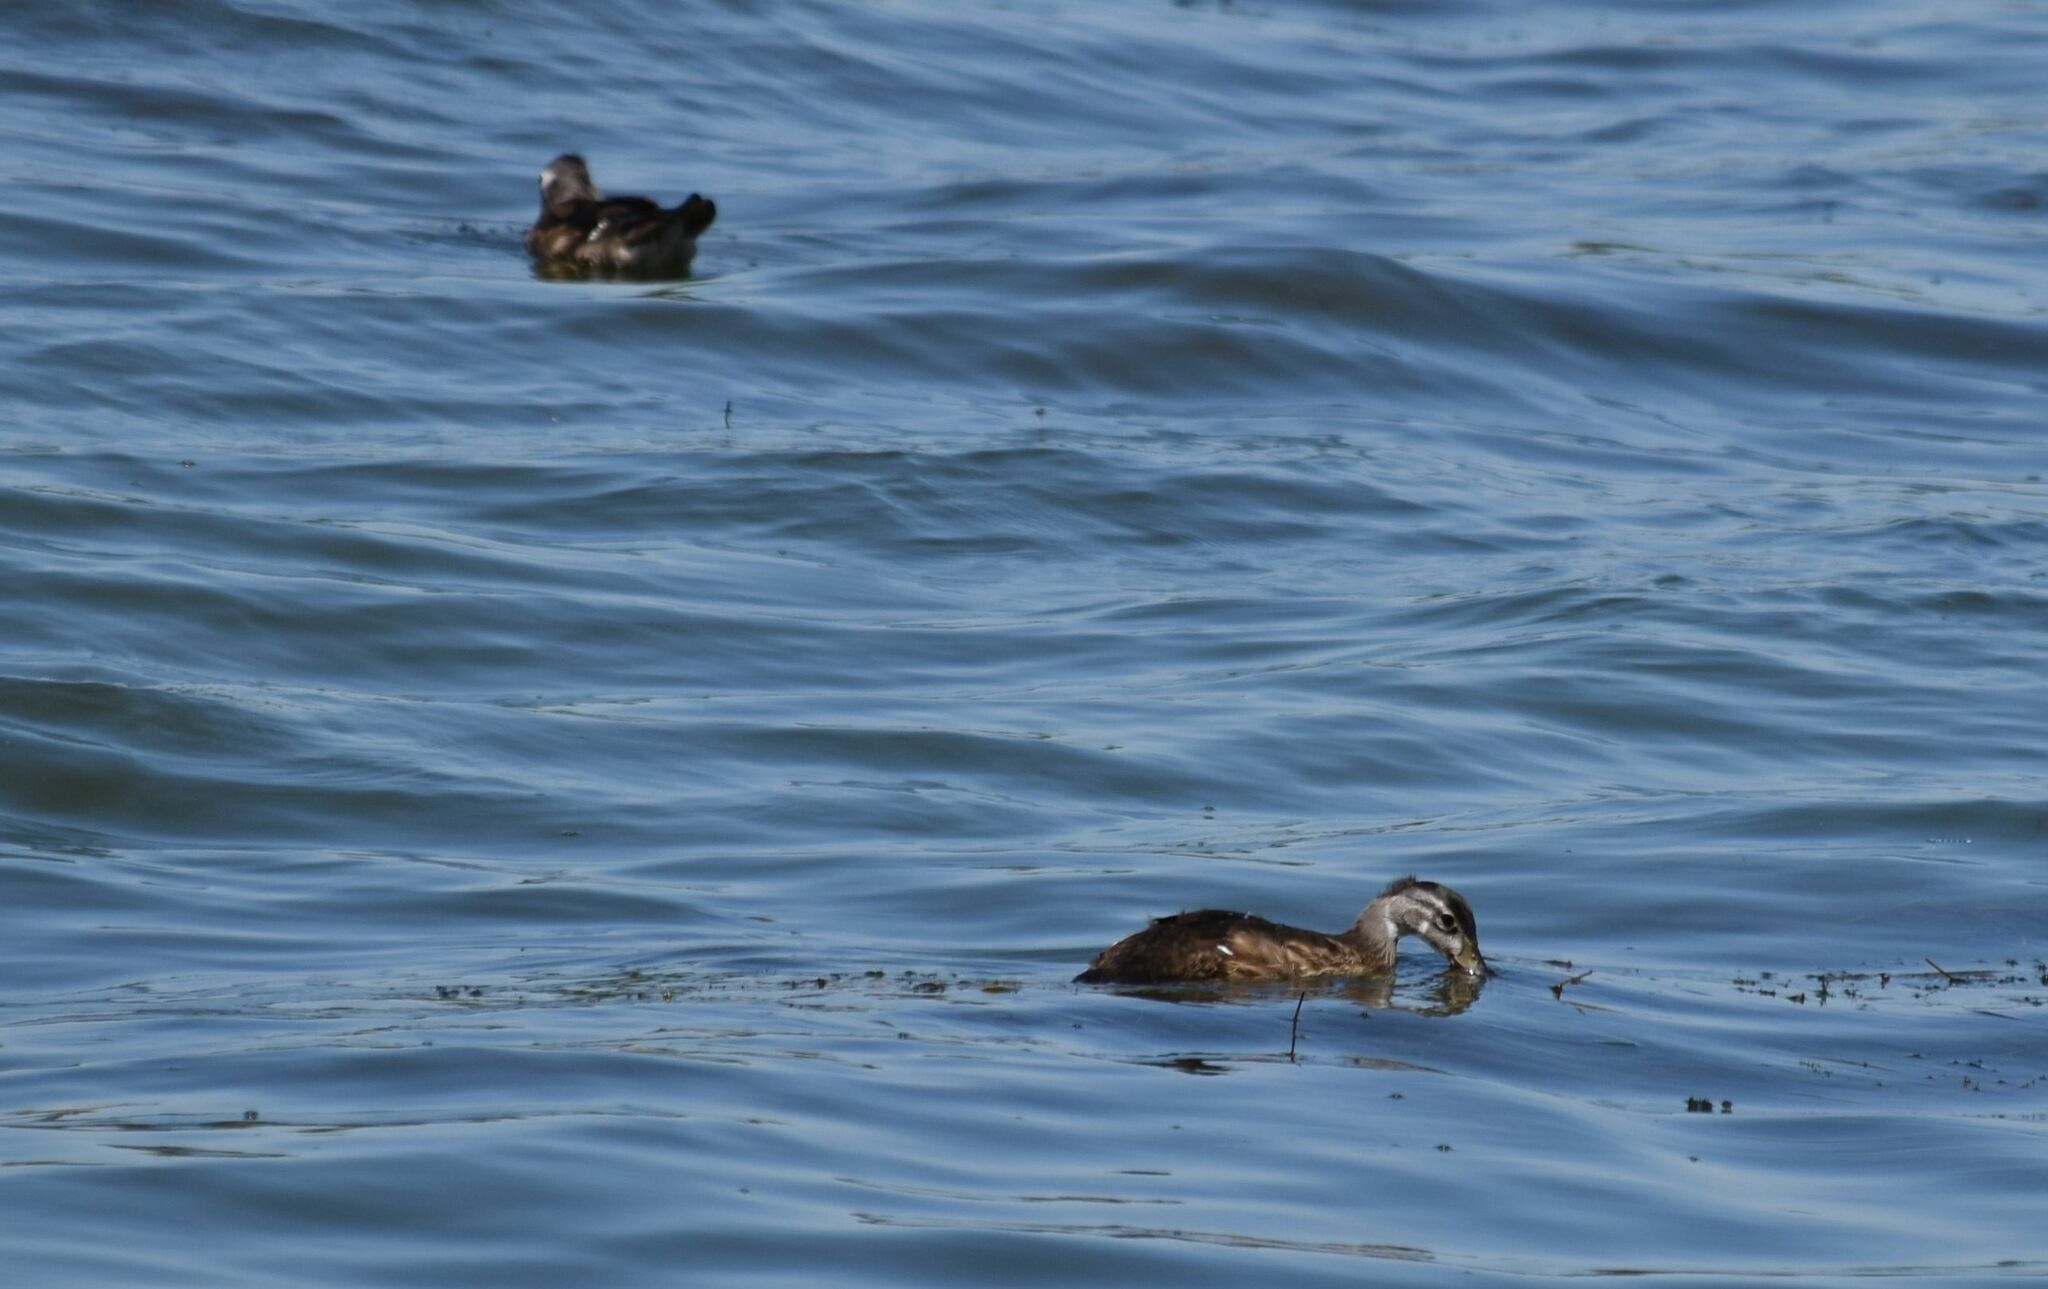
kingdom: Animalia
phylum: Chordata
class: Aves
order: Anseriformes
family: Anatidae
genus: Aix
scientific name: Aix sponsa
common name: Wood duck
